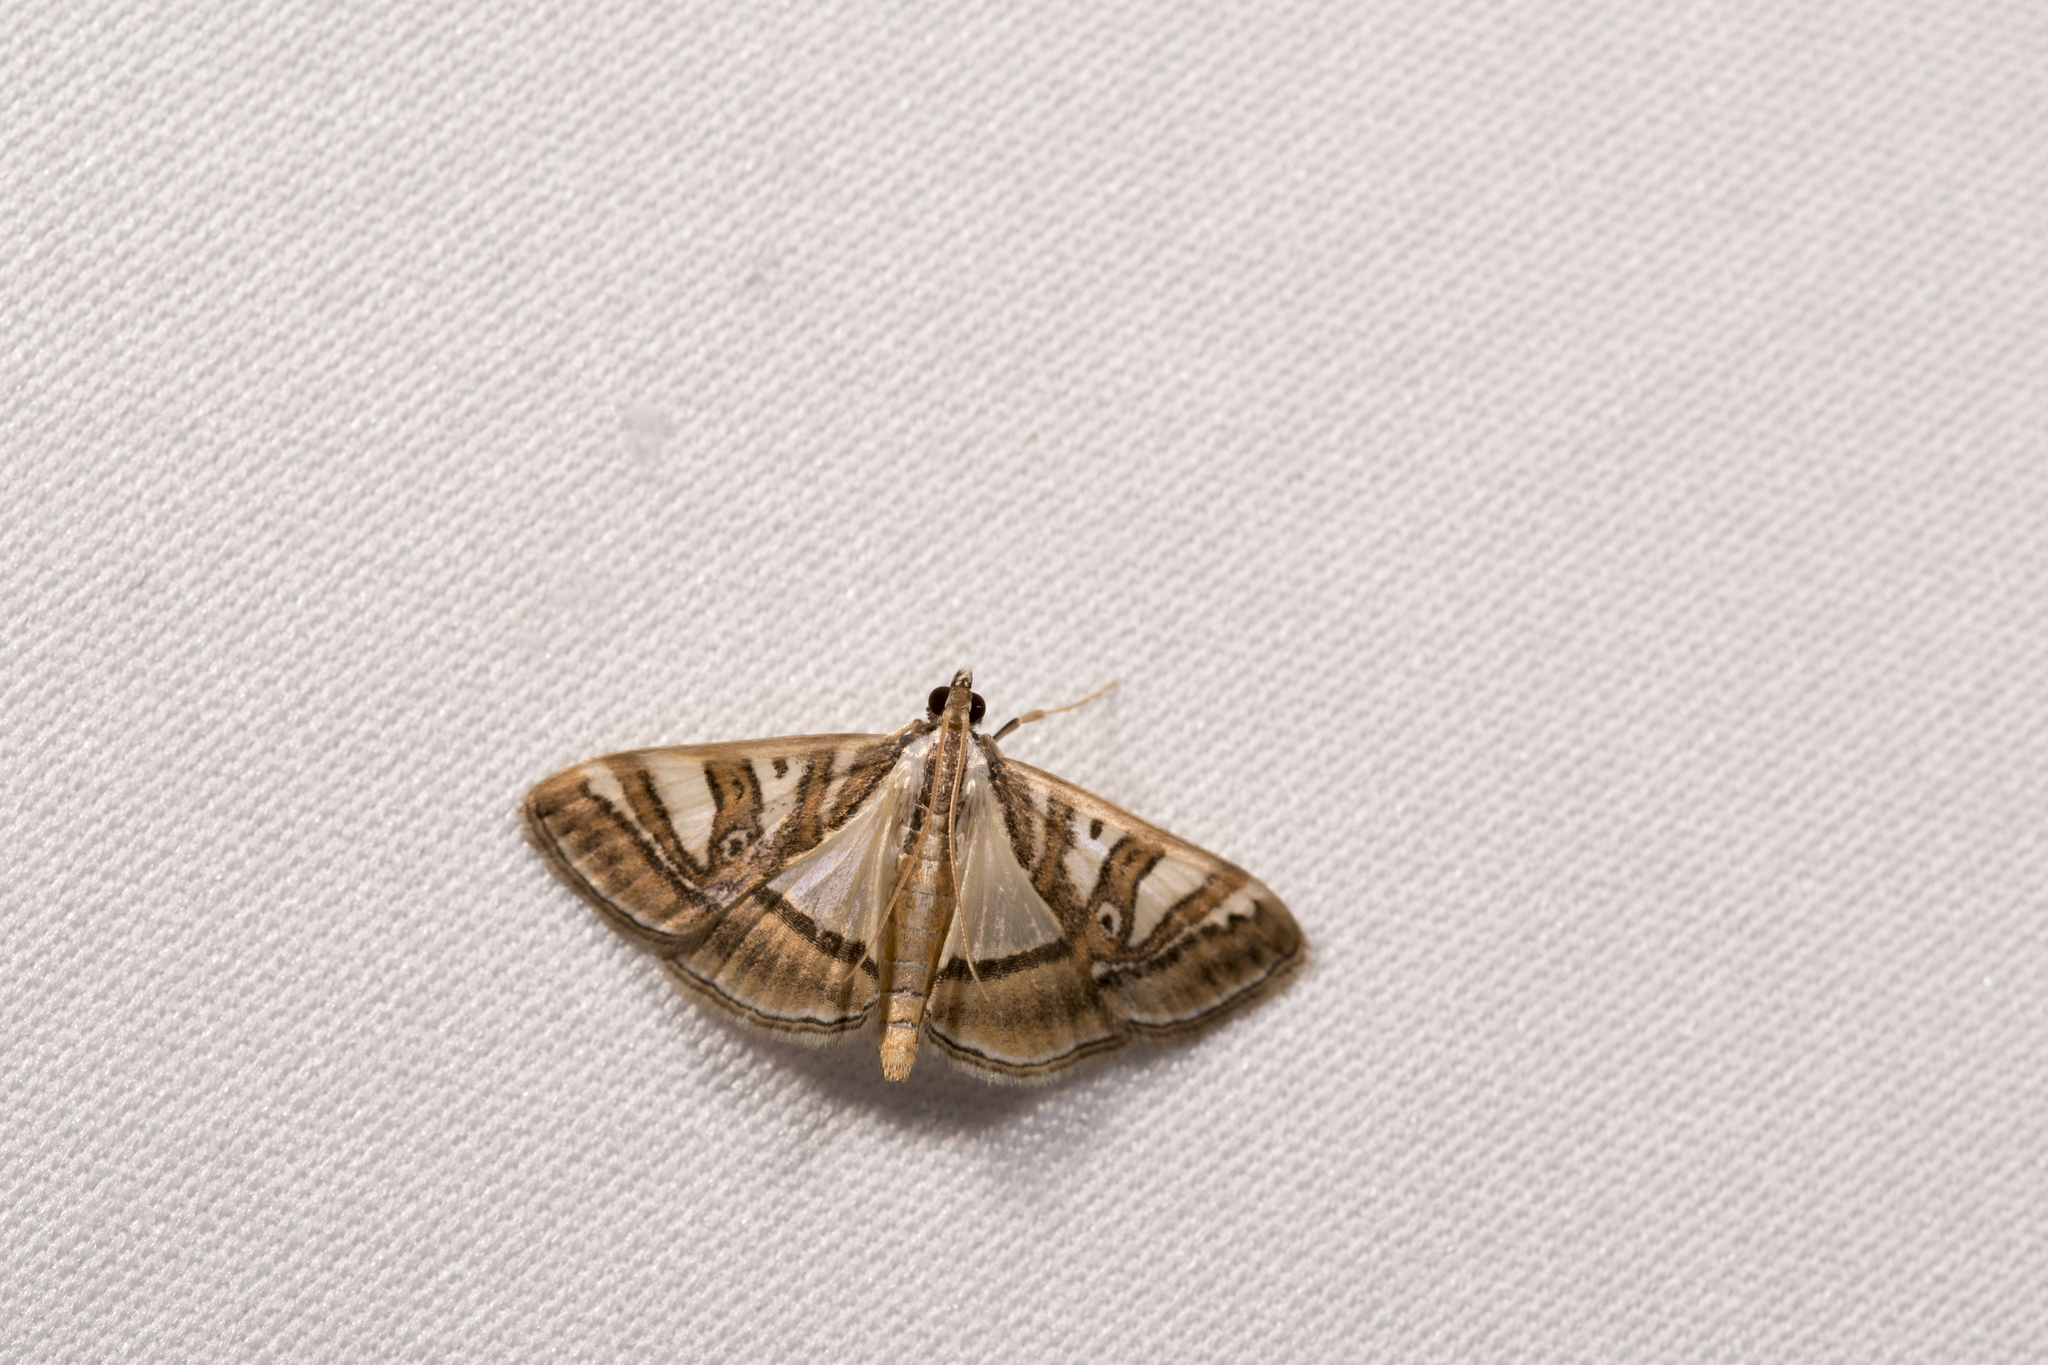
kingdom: Animalia
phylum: Arthropoda
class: Insecta
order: Lepidoptera
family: Crambidae
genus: Glyphodes
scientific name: Glyphodes duplicalis
